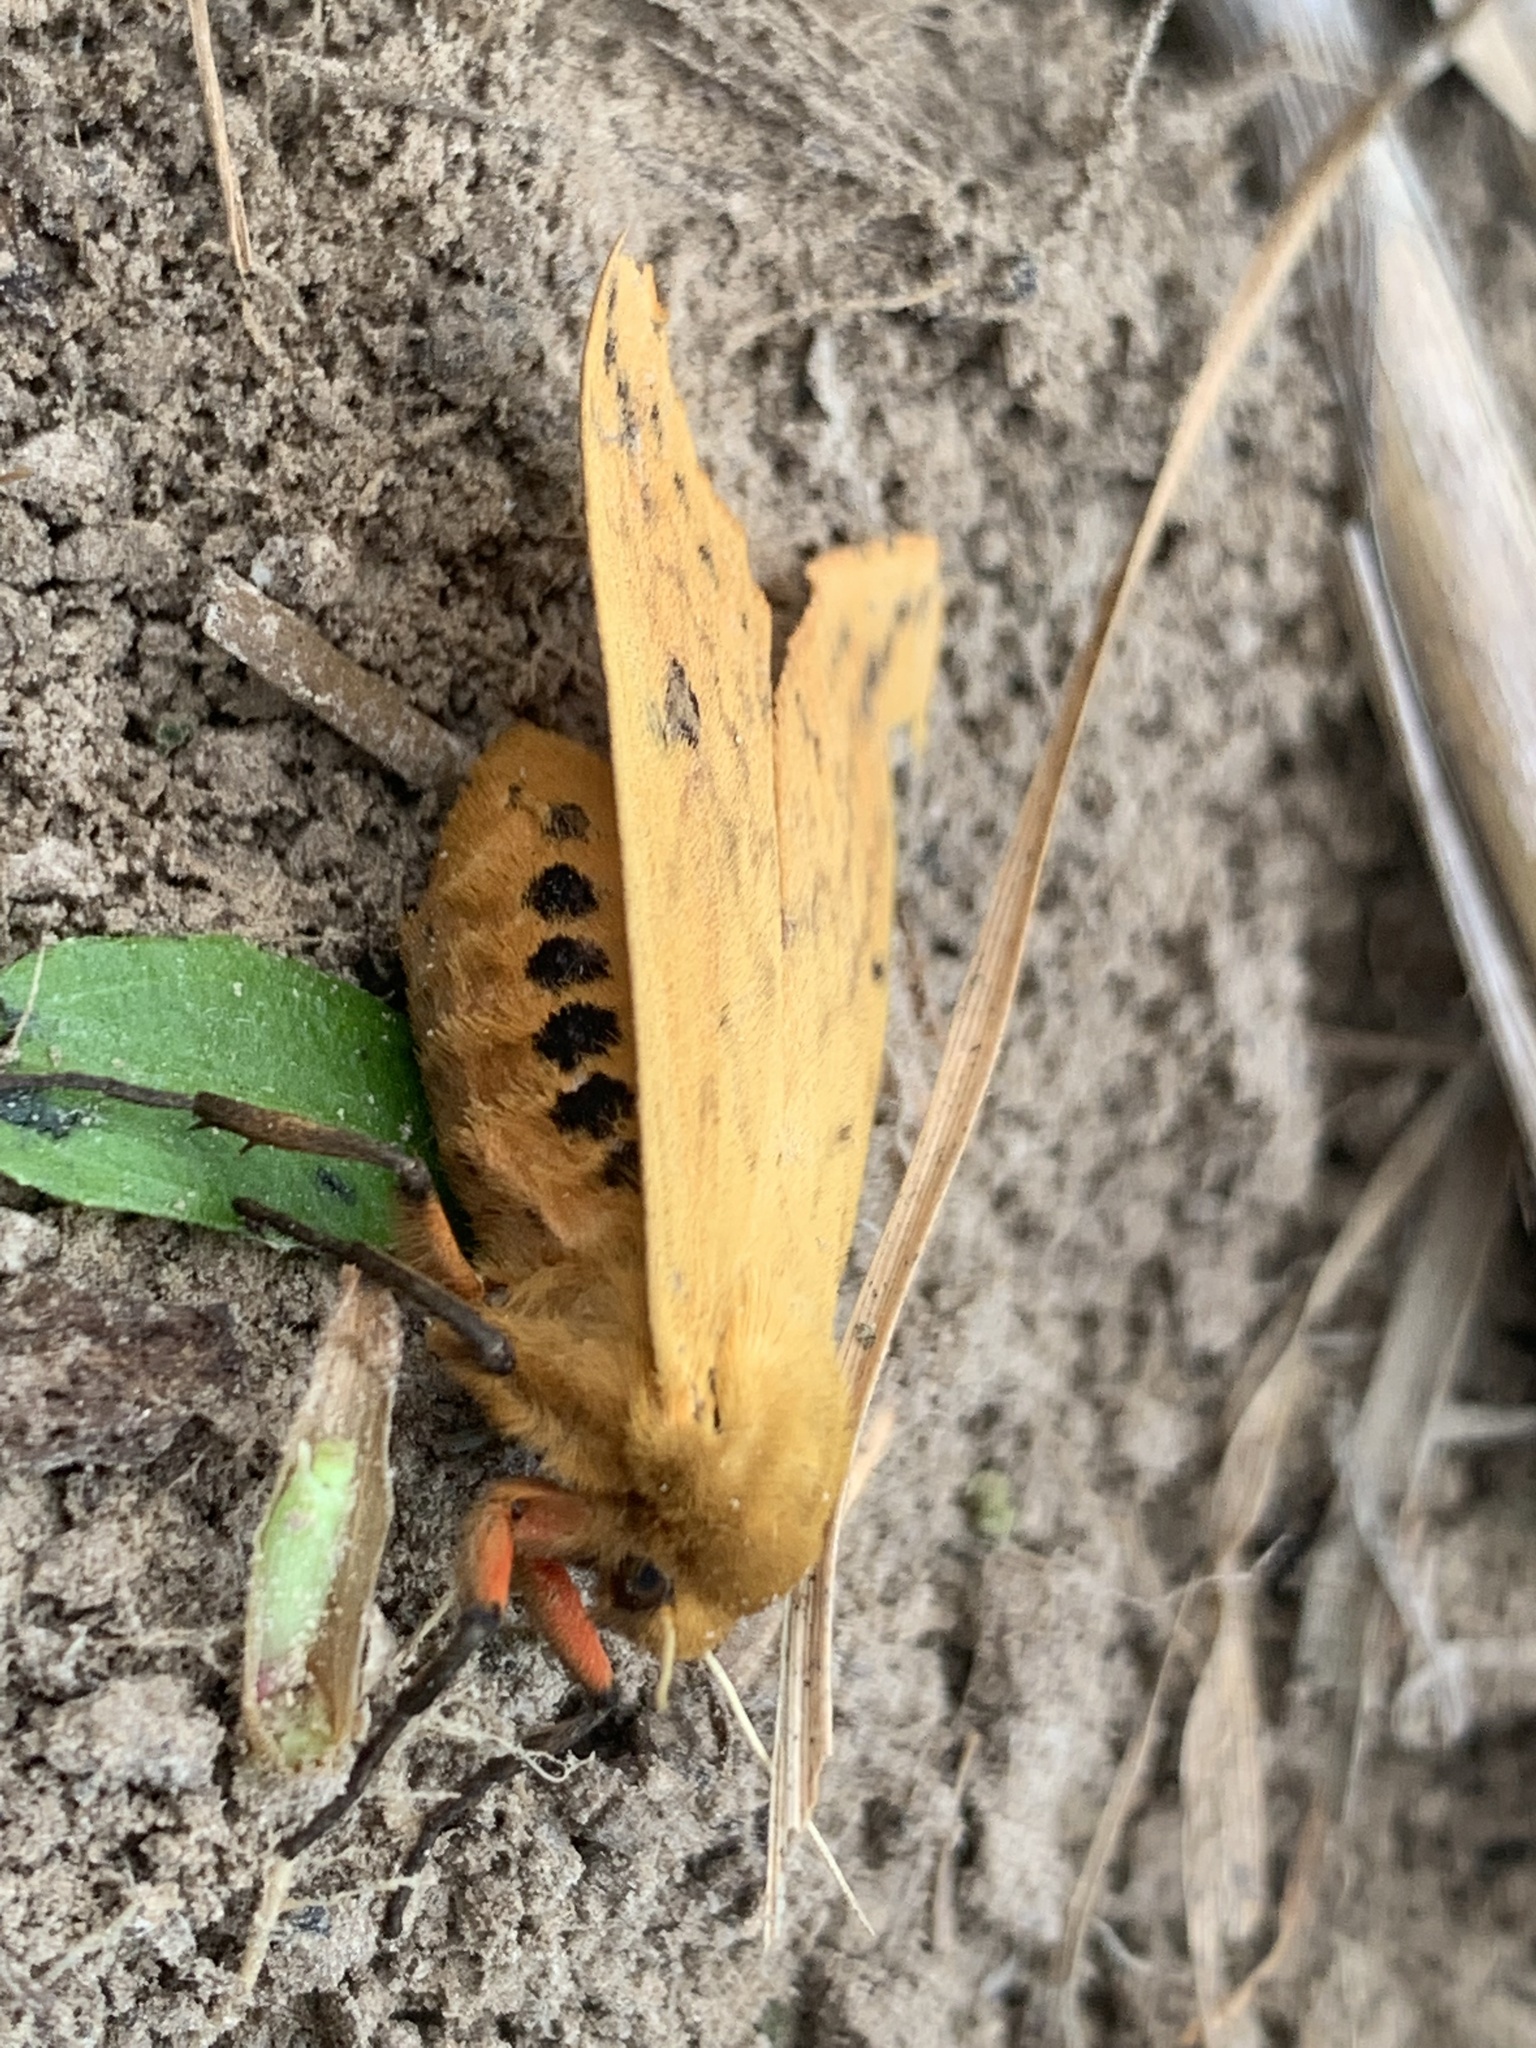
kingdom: Animalia
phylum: Arthropoda
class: Insecta
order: Lepidoptera
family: Erebidae
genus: Pyrrharctia
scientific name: Pyrrharctia isabella
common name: Isabella tiger moth
